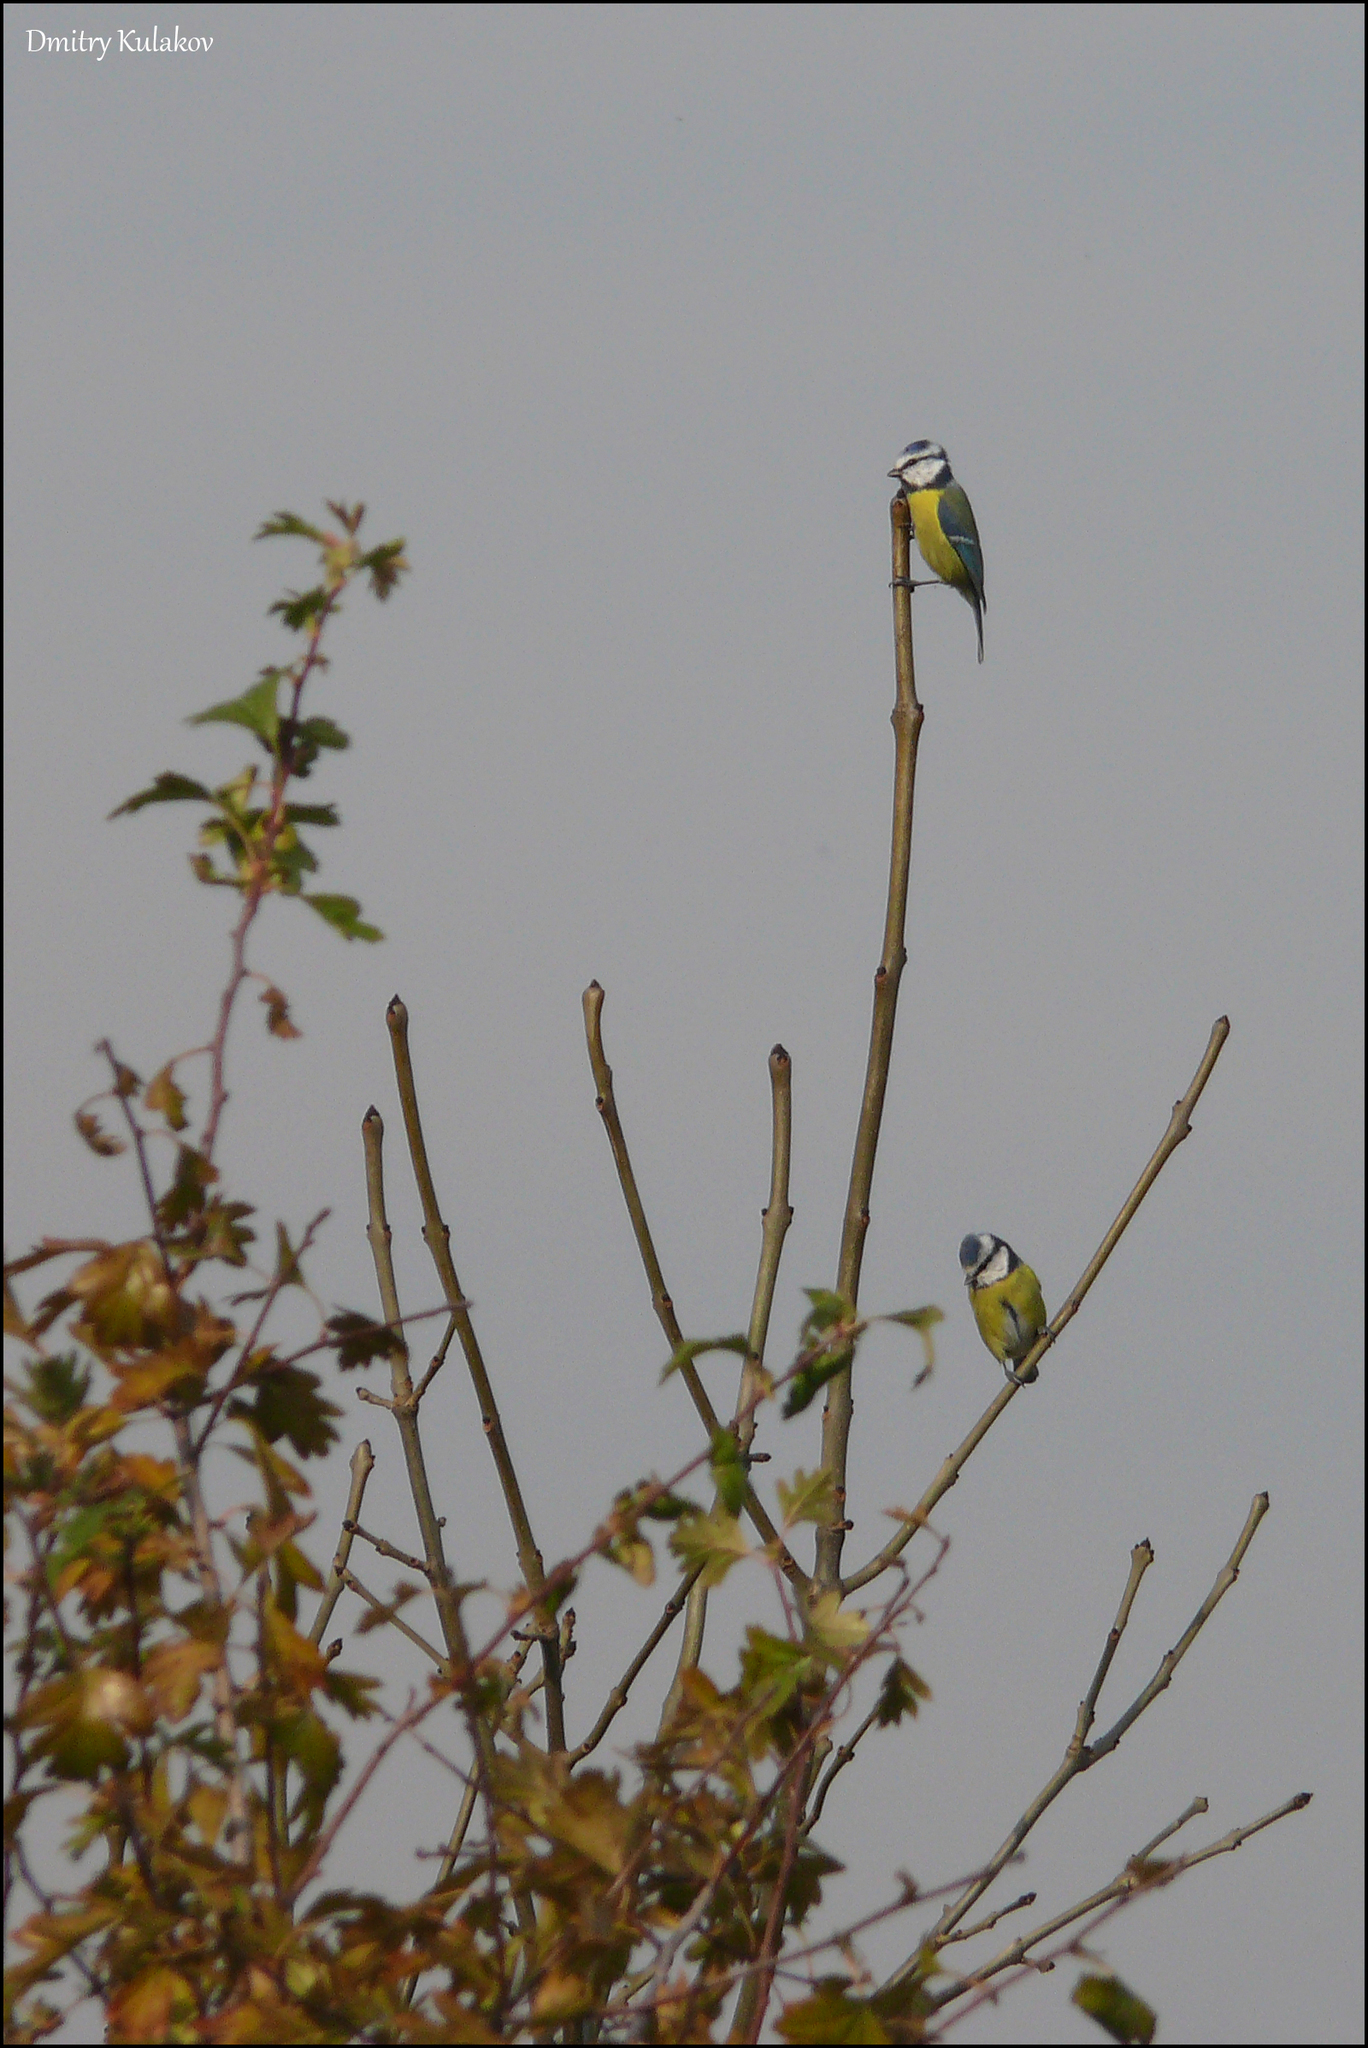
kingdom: Animalia
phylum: Chordata
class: Aves
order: Passeriformes
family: Paridae
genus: Cyanistes
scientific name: Cyanistes caeruleus
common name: Eurasian blue tit
